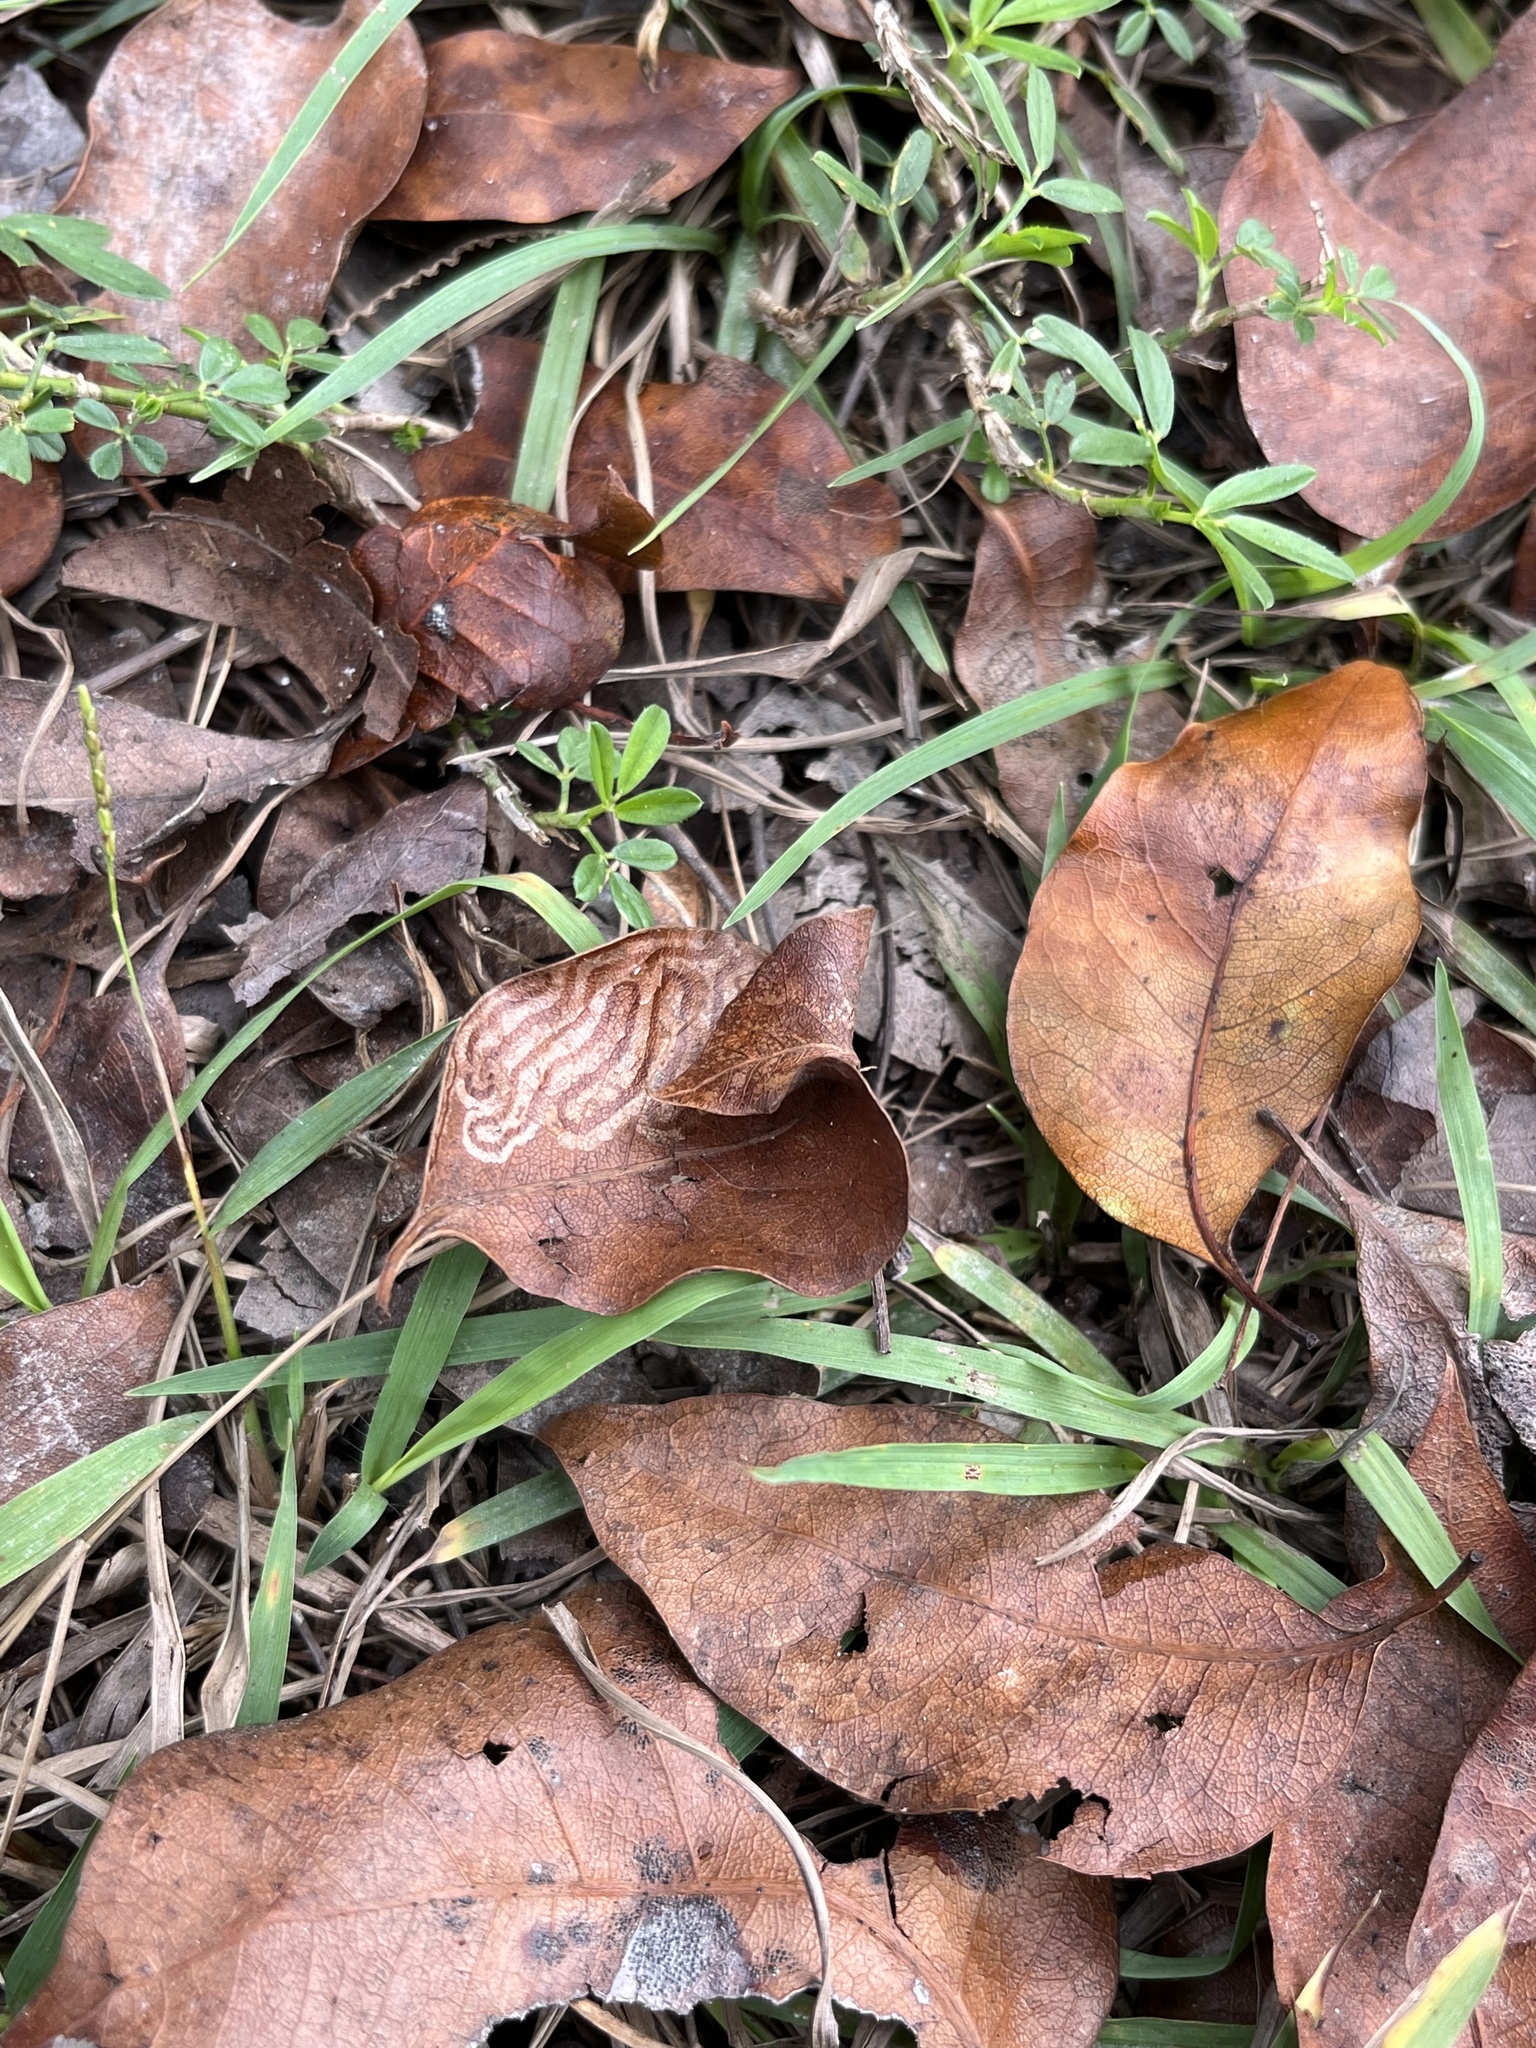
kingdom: Animalia
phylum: Arthropoda
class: Insecta
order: Lepidoptera
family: Gracillariidae
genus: Phyllocnistis
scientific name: Phyllocnistis meliacella
